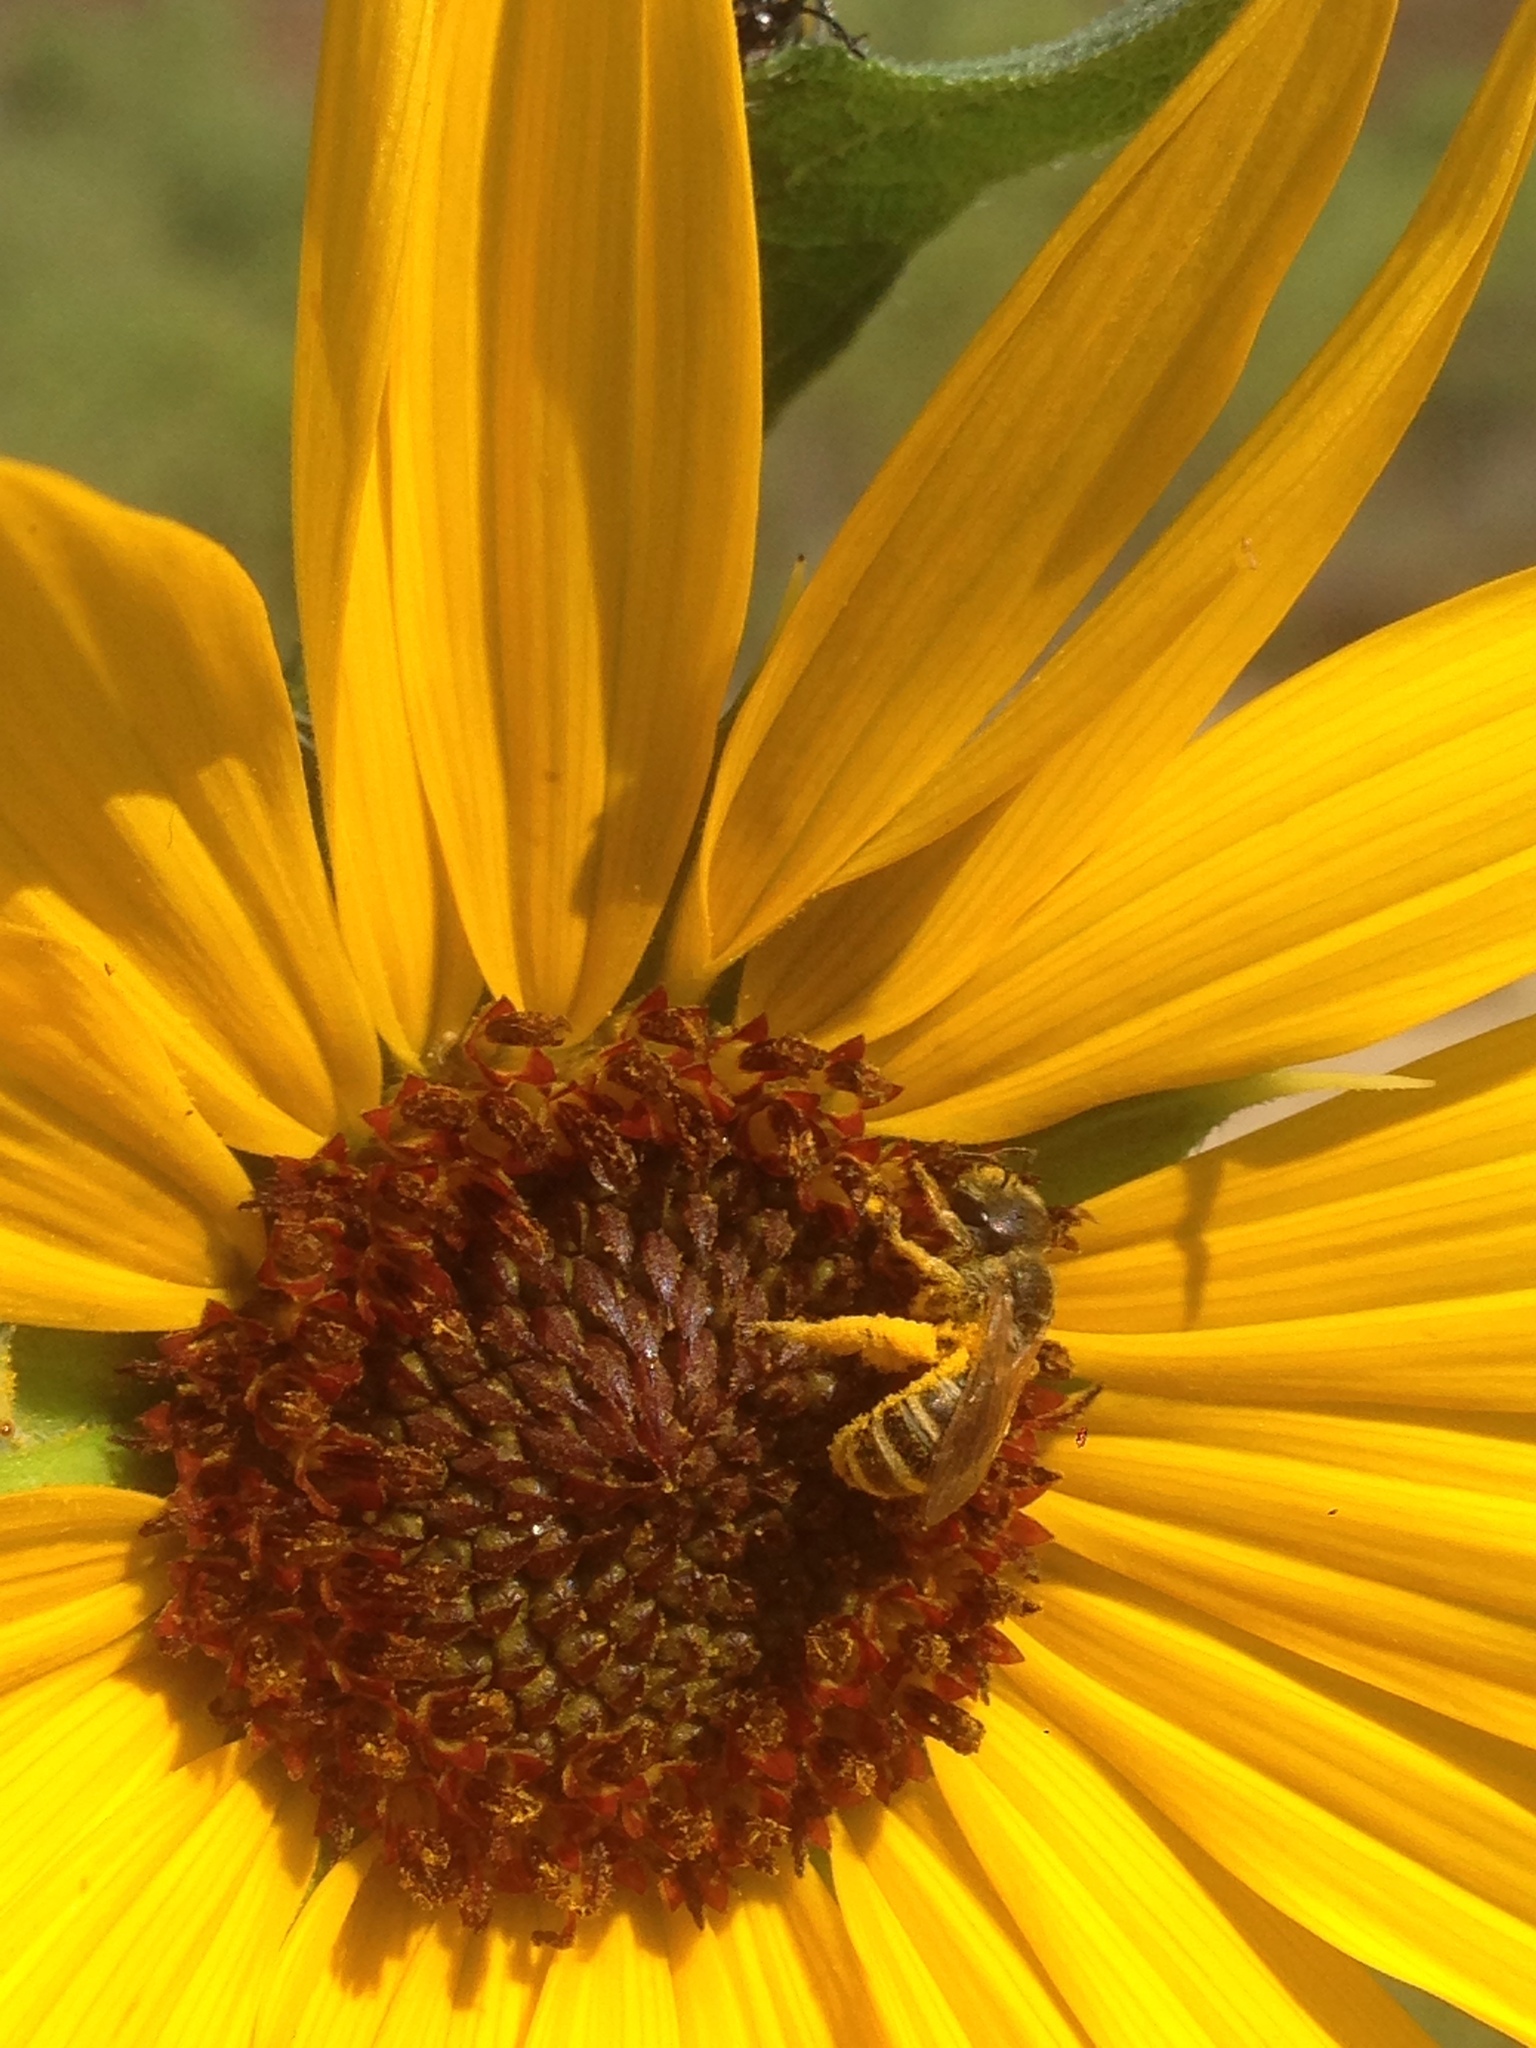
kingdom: Plantae
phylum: Tracheophyta
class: Magnoliopsida
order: Asterales
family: Asteraceae
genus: Helianthus
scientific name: Helianthus annuus
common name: Sunflower
